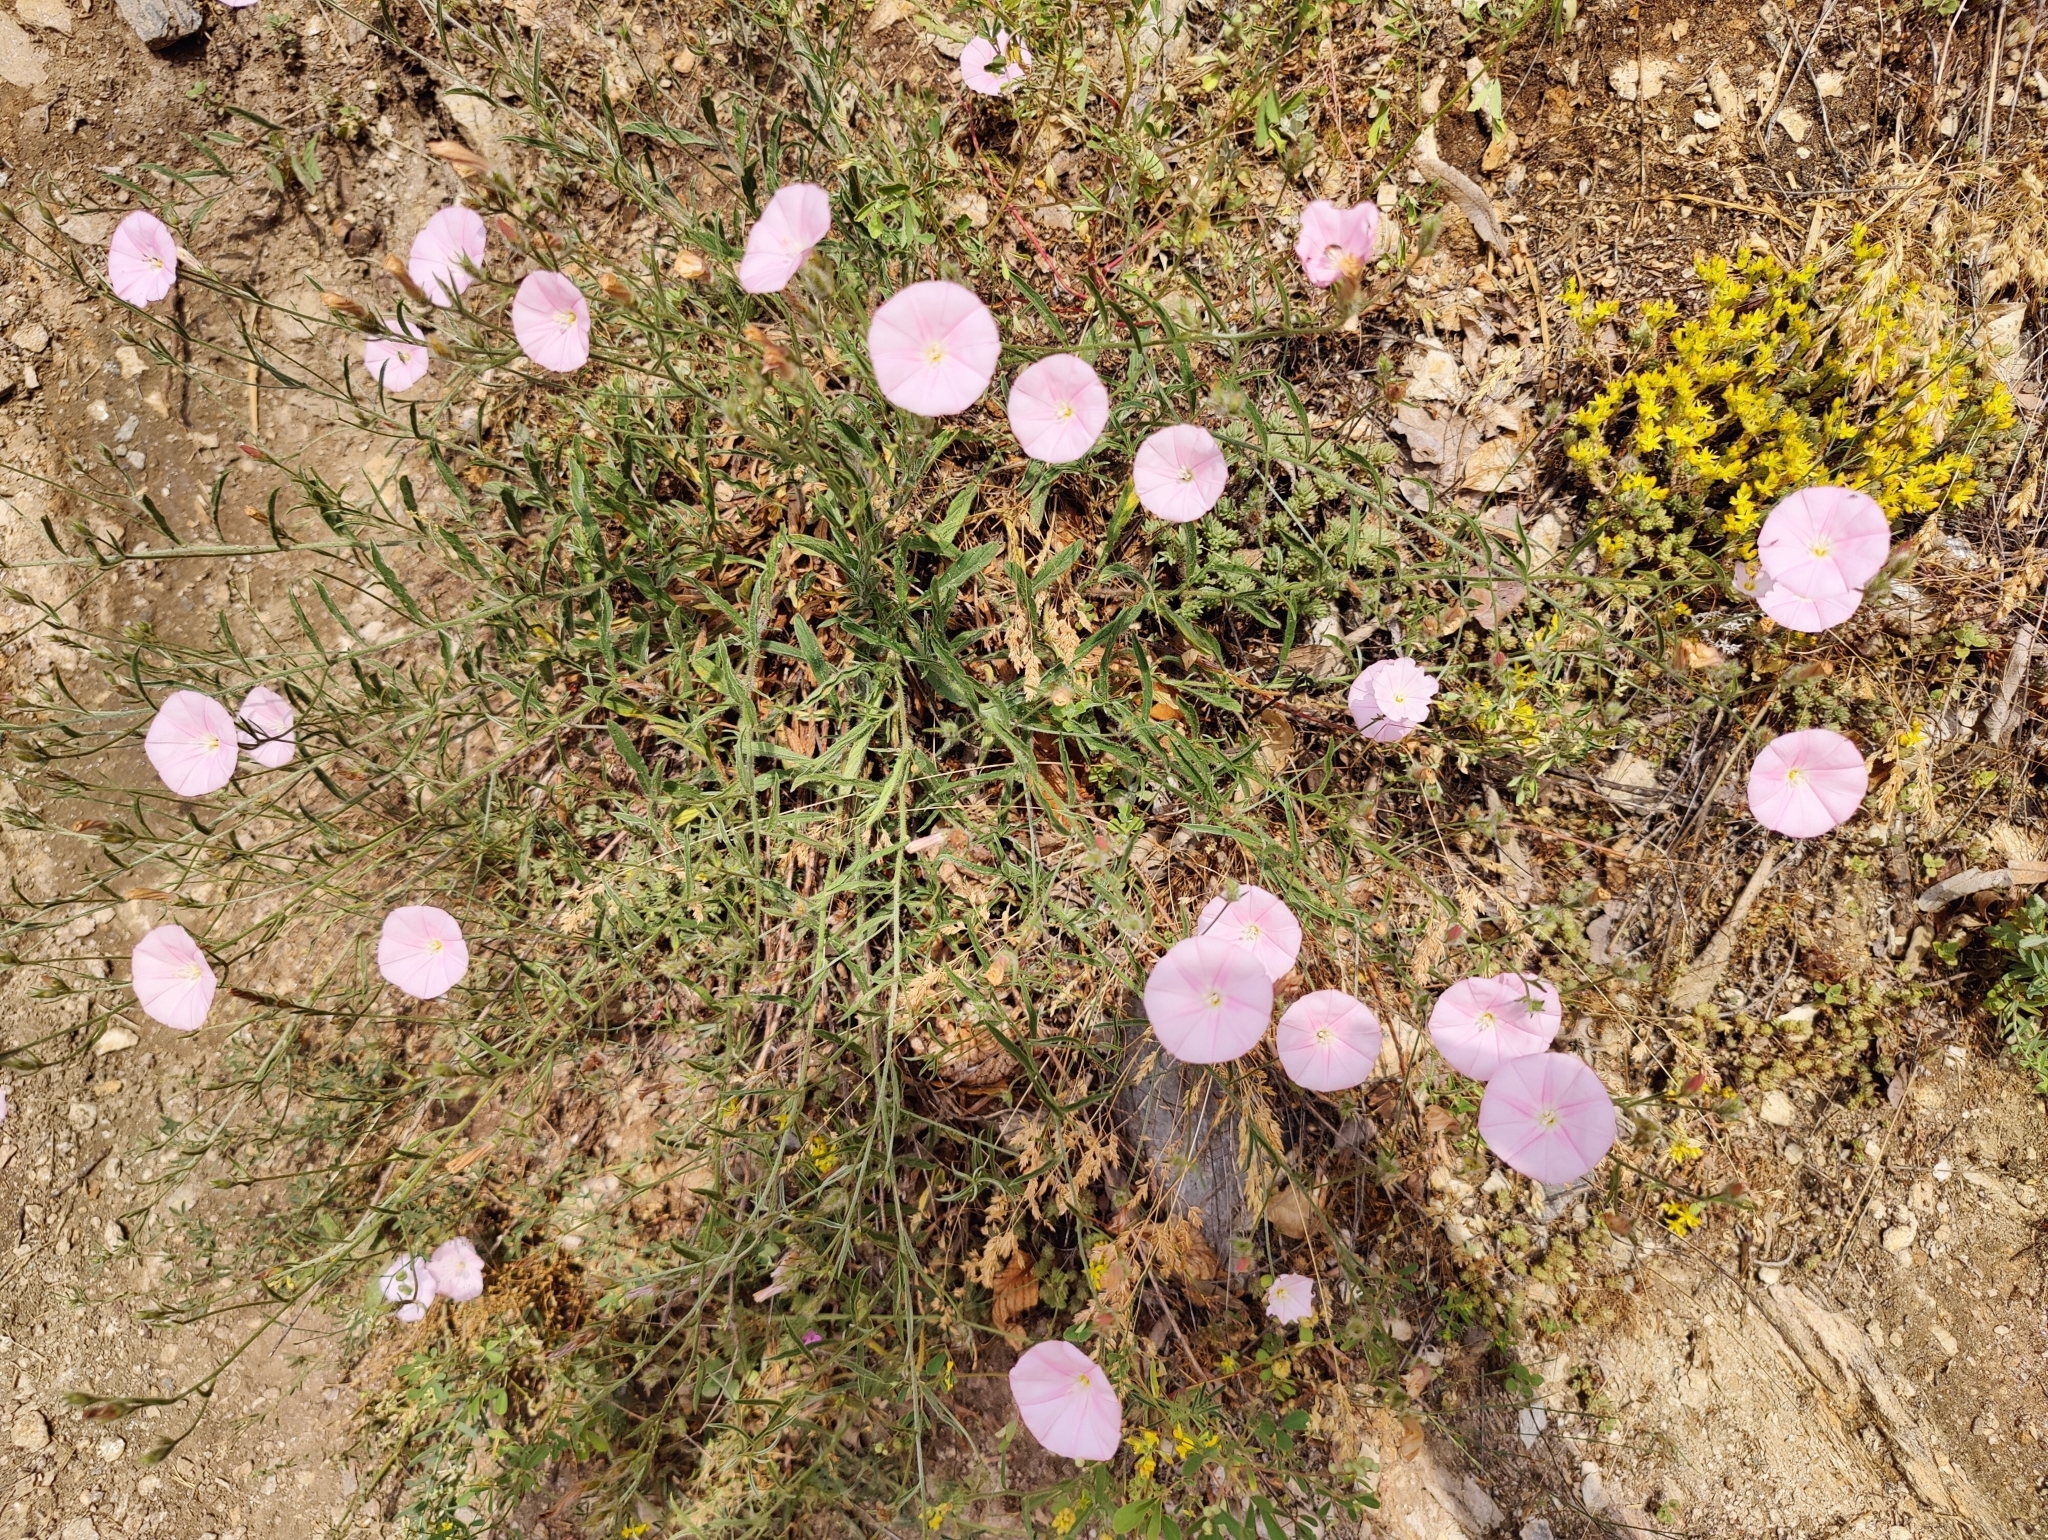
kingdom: Plantae
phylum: Tracheophyta
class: Magnoliopsida
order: Solanales
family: Convolvulaceae
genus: Convolvulus
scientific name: Convolvulus cantabrica
